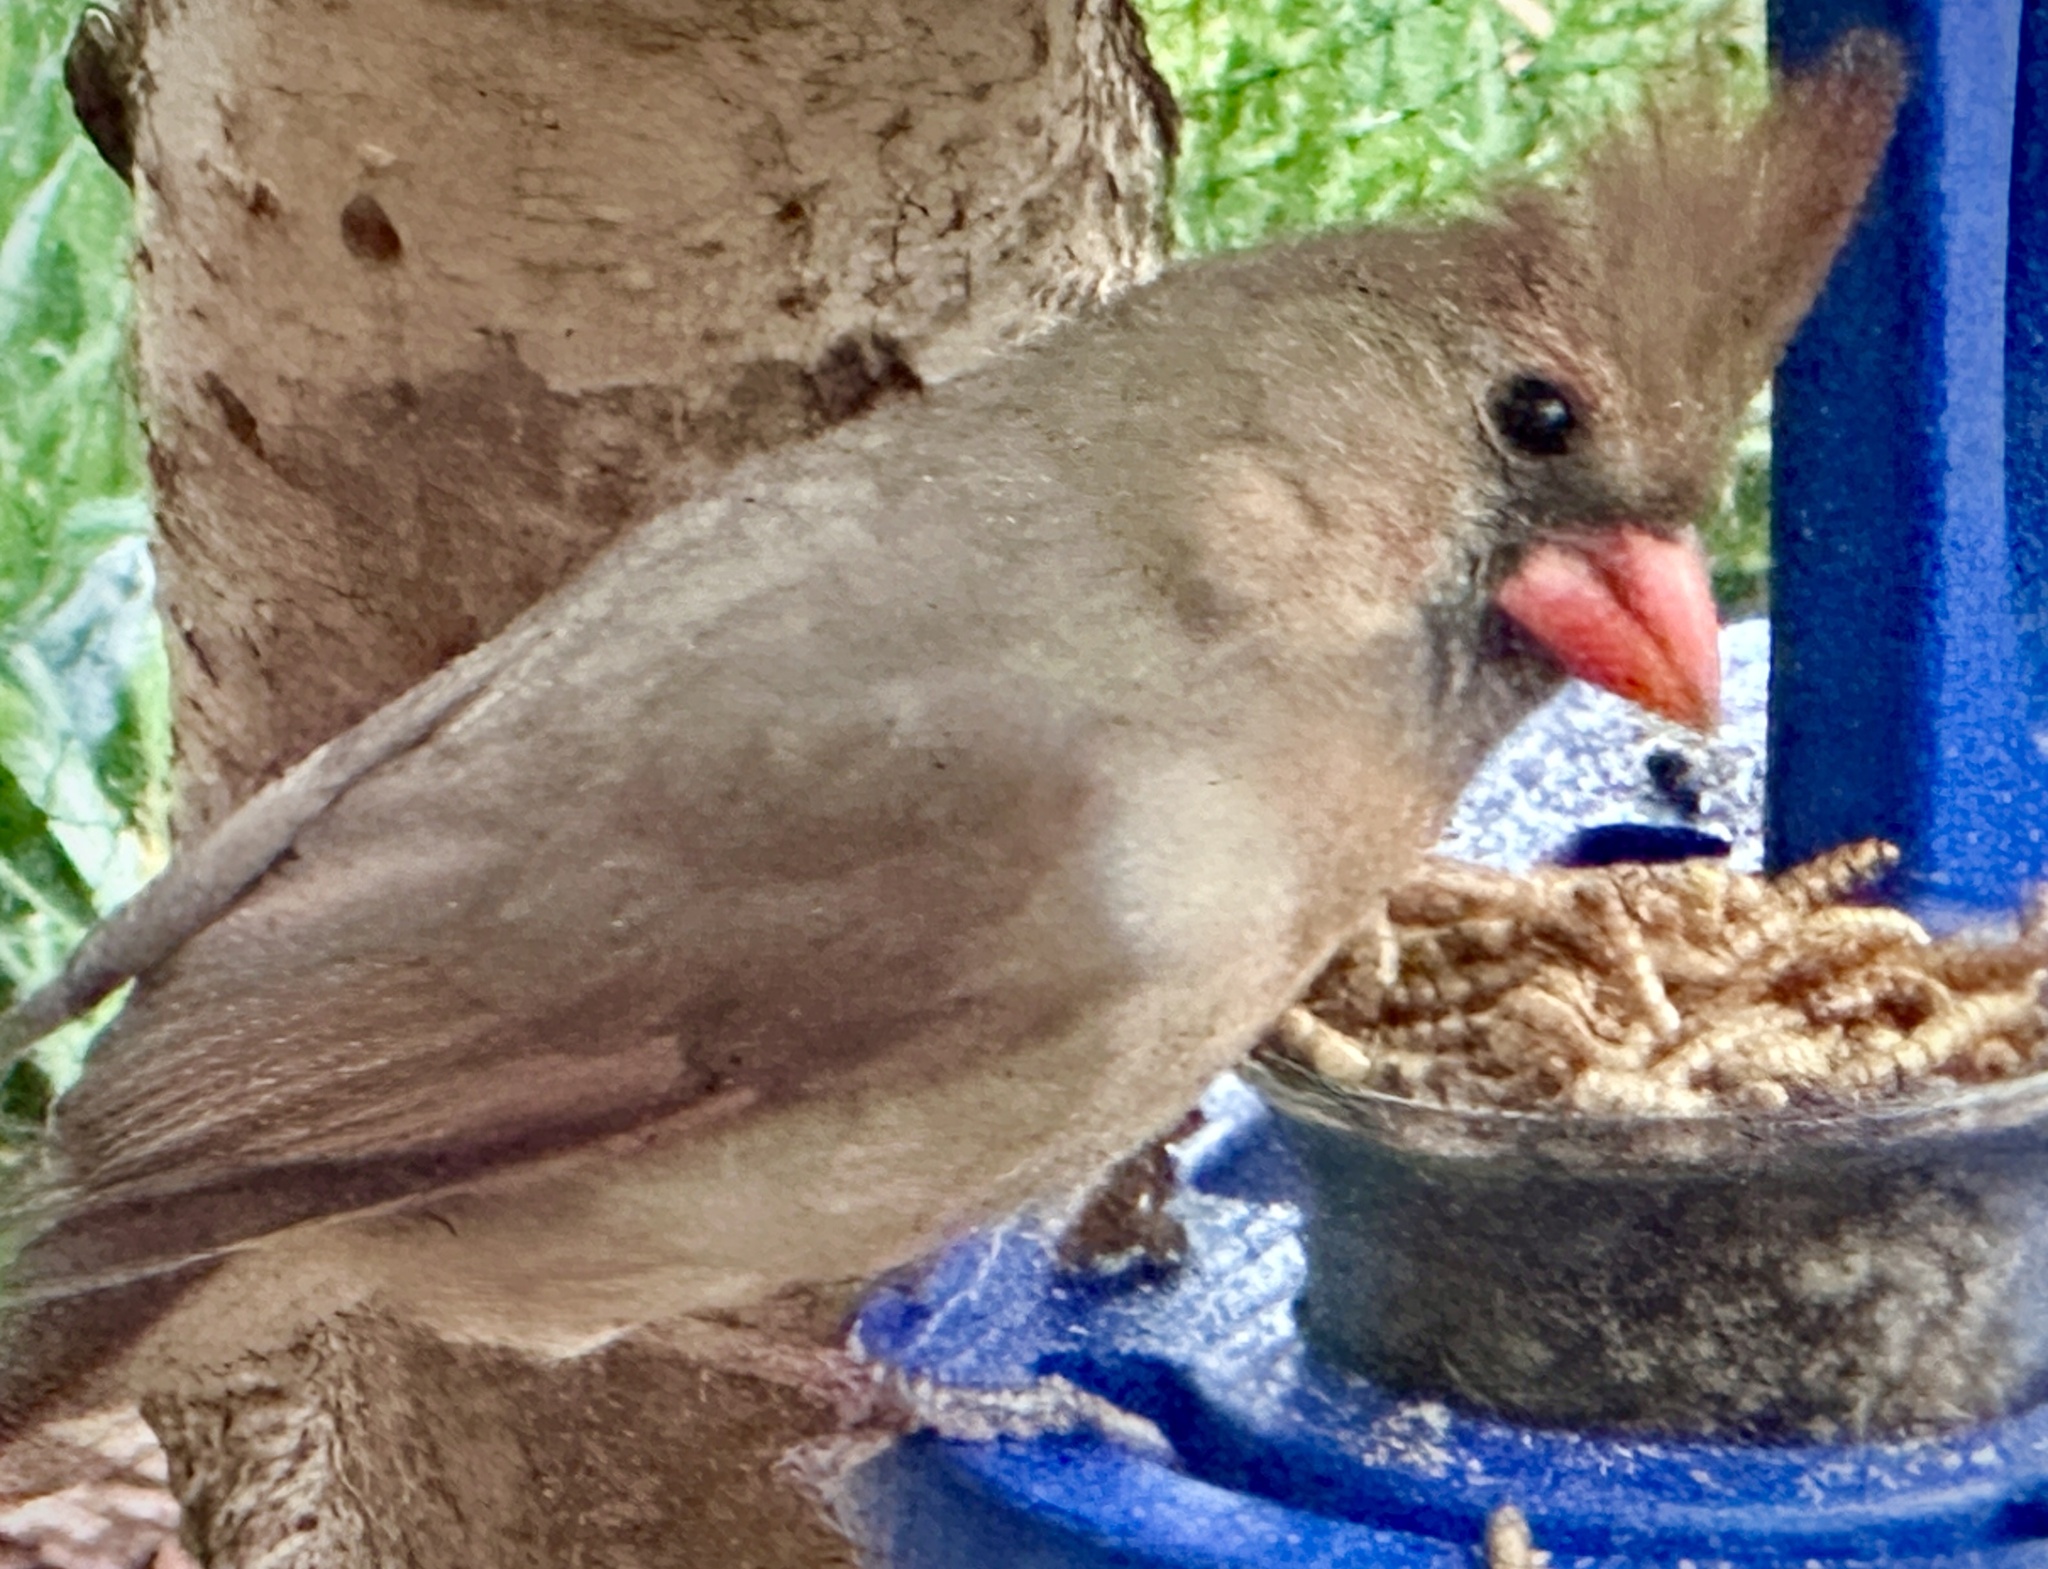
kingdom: Animalia
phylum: Chordata
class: Aves
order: Passeriformes
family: Cardinalidae
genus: Cardinalis
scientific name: Cardinalis cardinalis
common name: Northern cardinal
